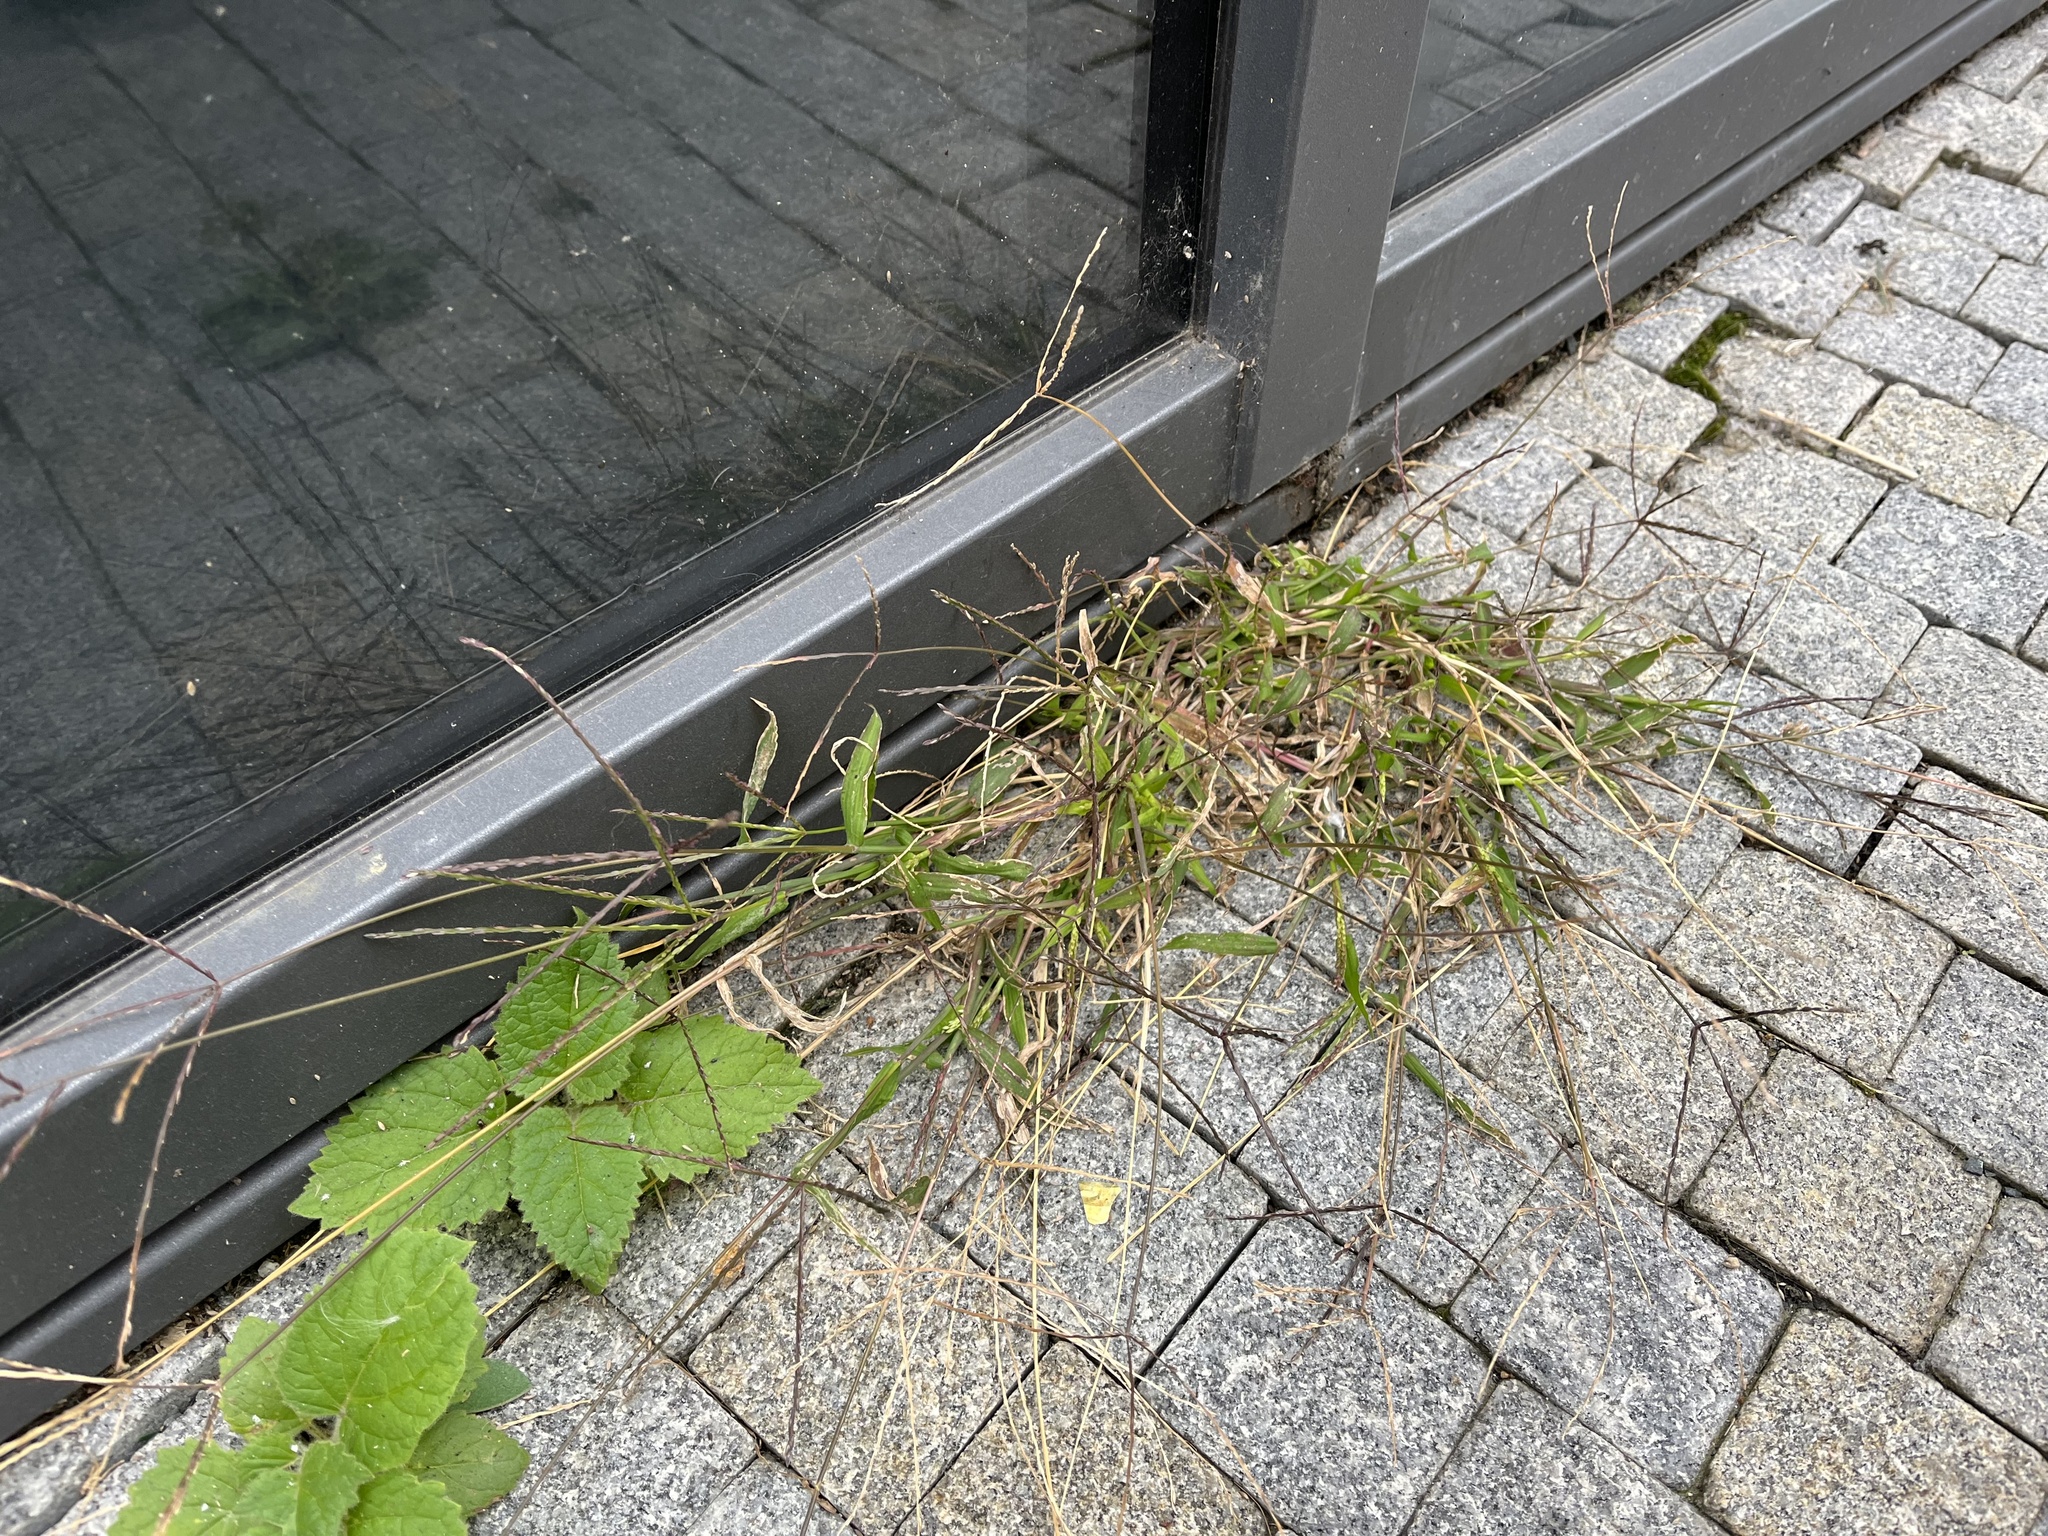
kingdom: Plantae
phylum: Tracheophyta
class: Liliopsida
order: Poales
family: Poaceae
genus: Digitaria
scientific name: Digitaria sanguinalis
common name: Hairy crabgrass
